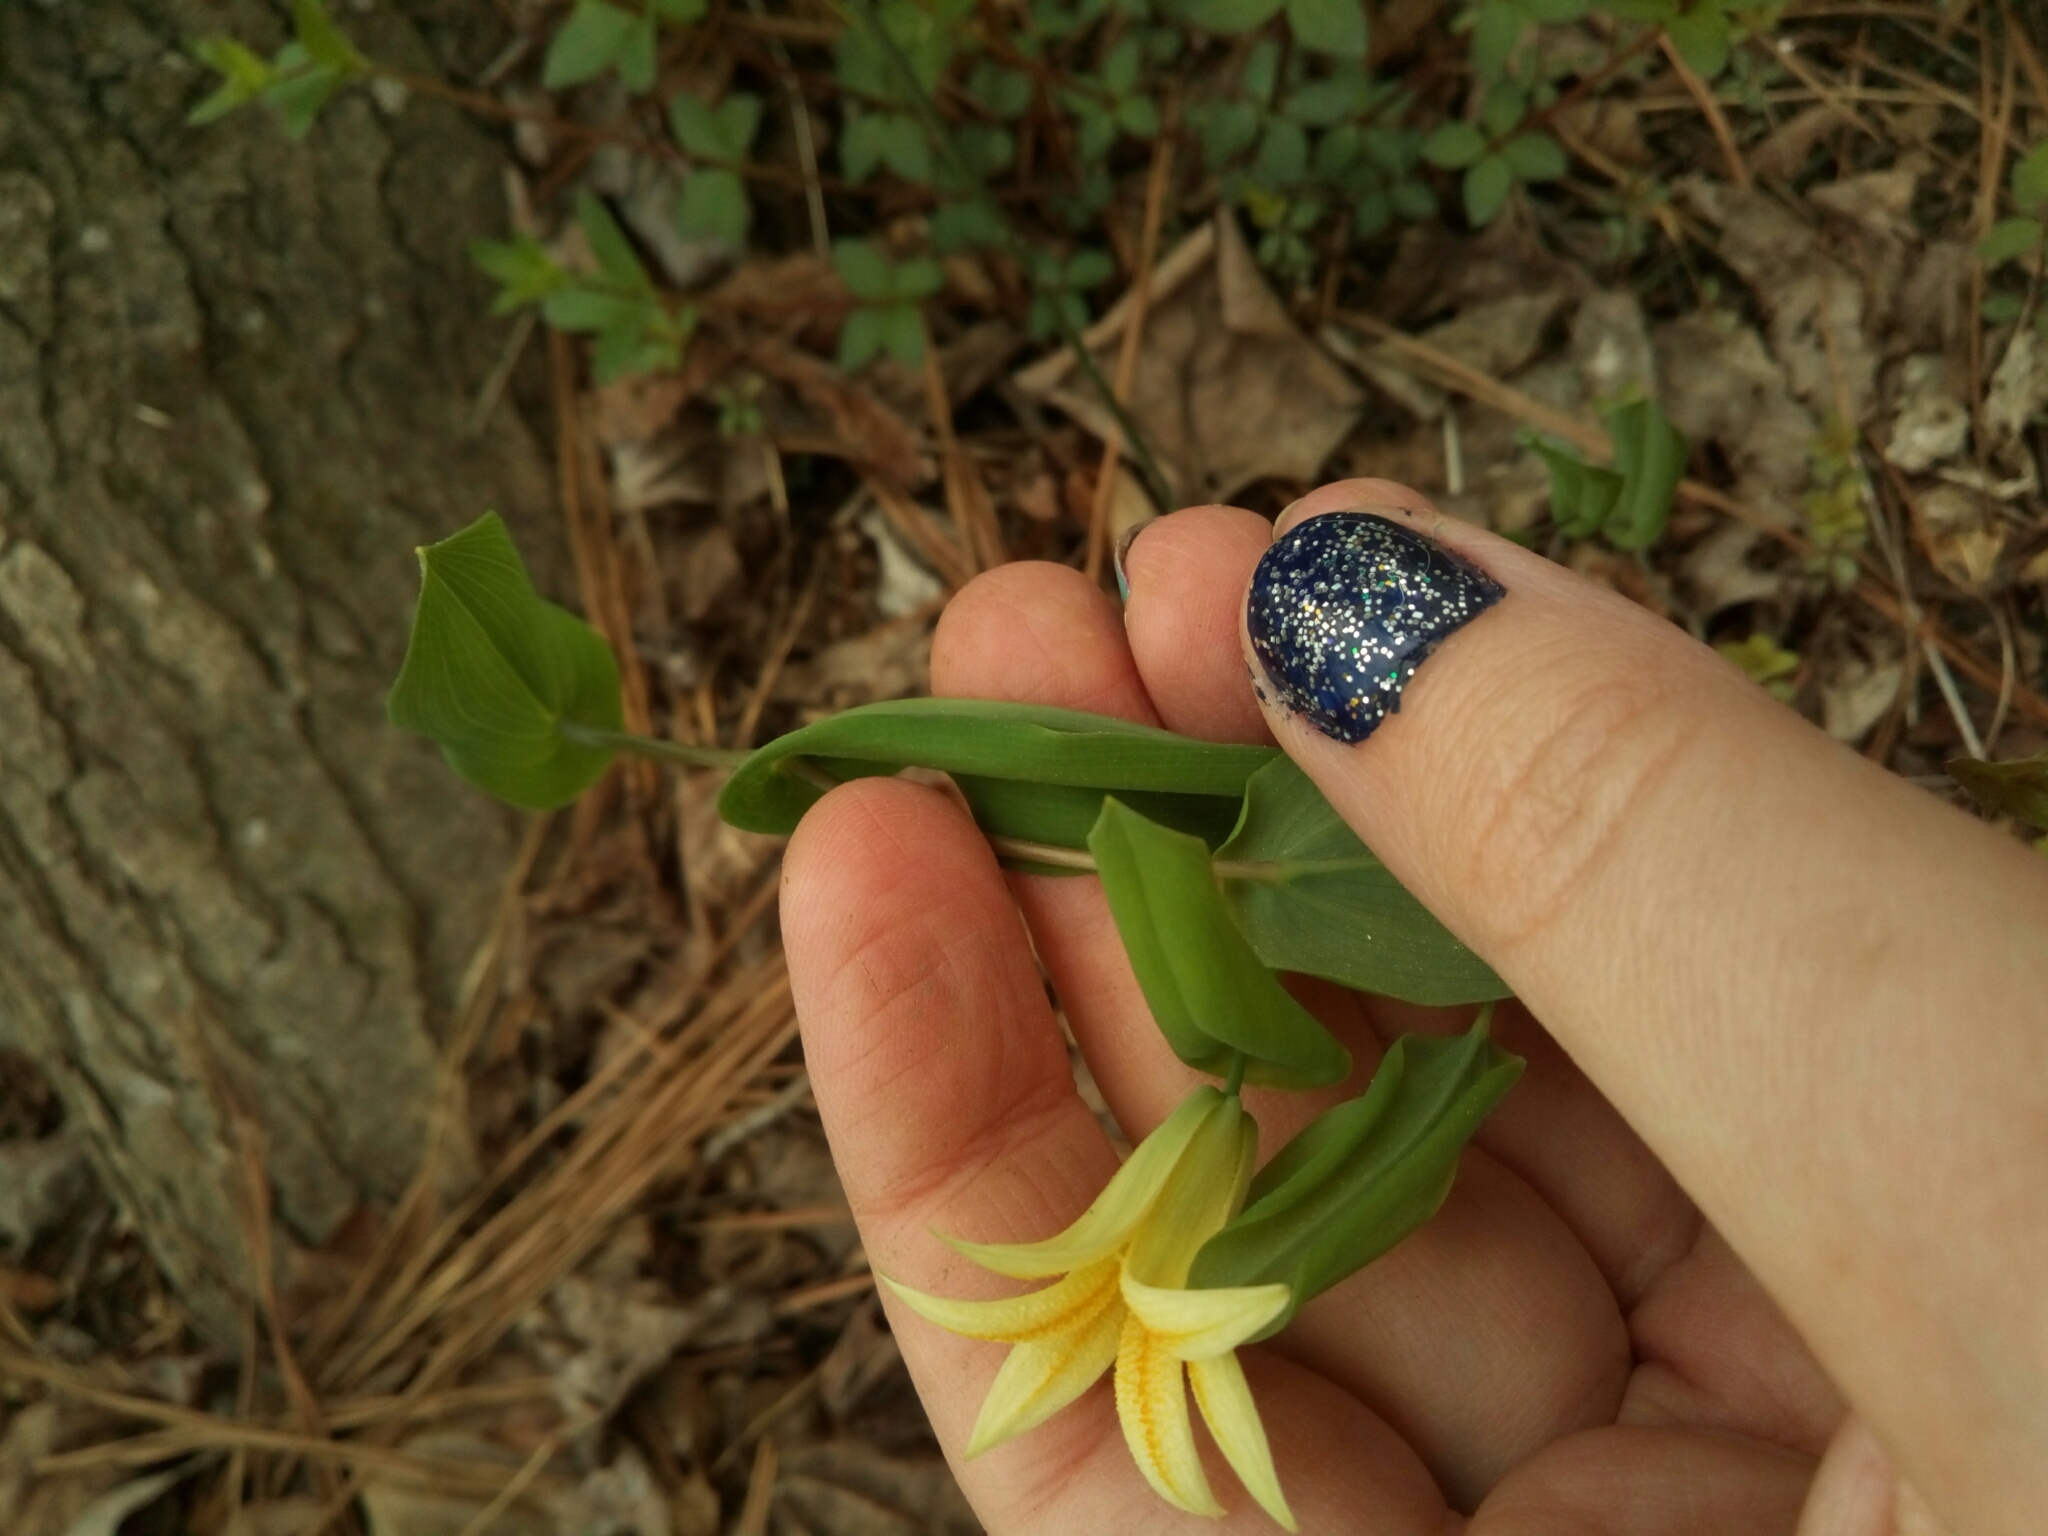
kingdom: Plantae
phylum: Tracheophyta
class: Liliopsida
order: Liliales
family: Colchicaceae
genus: Uvularia
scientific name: Uvularia perfoliata
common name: Perfoliate bellwort
